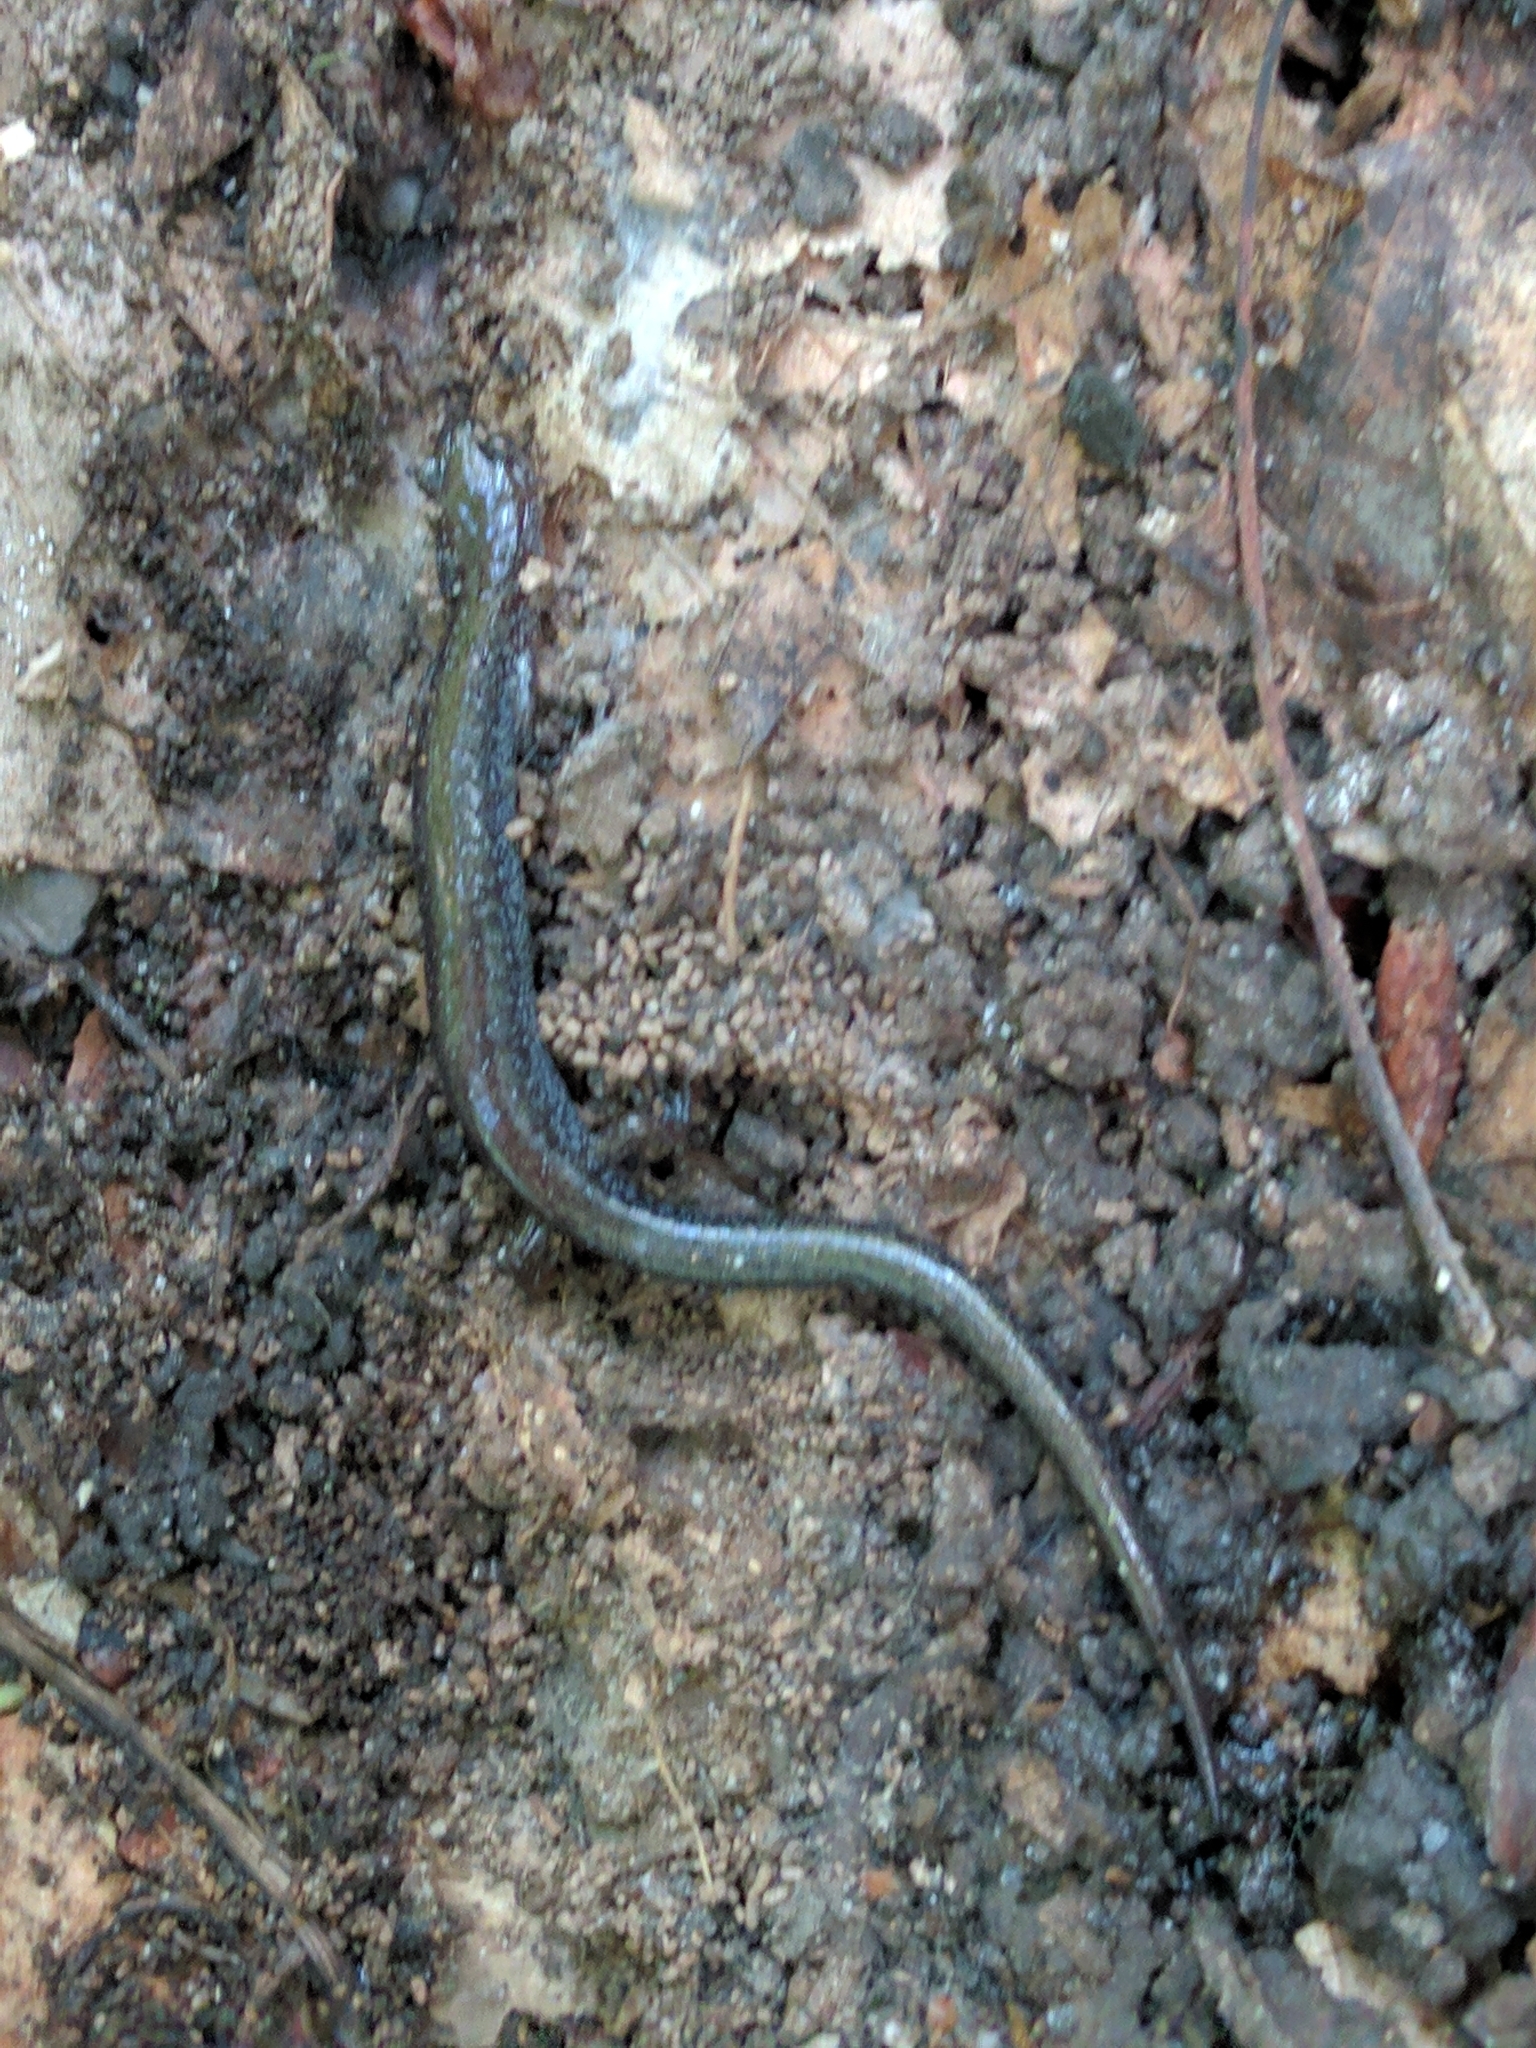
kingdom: Animalia
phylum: Chordata
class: Amphibia
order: Caudata
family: Plethodontidae
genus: Plethodon
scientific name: Plethodon cinereus
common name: Redback salamander
